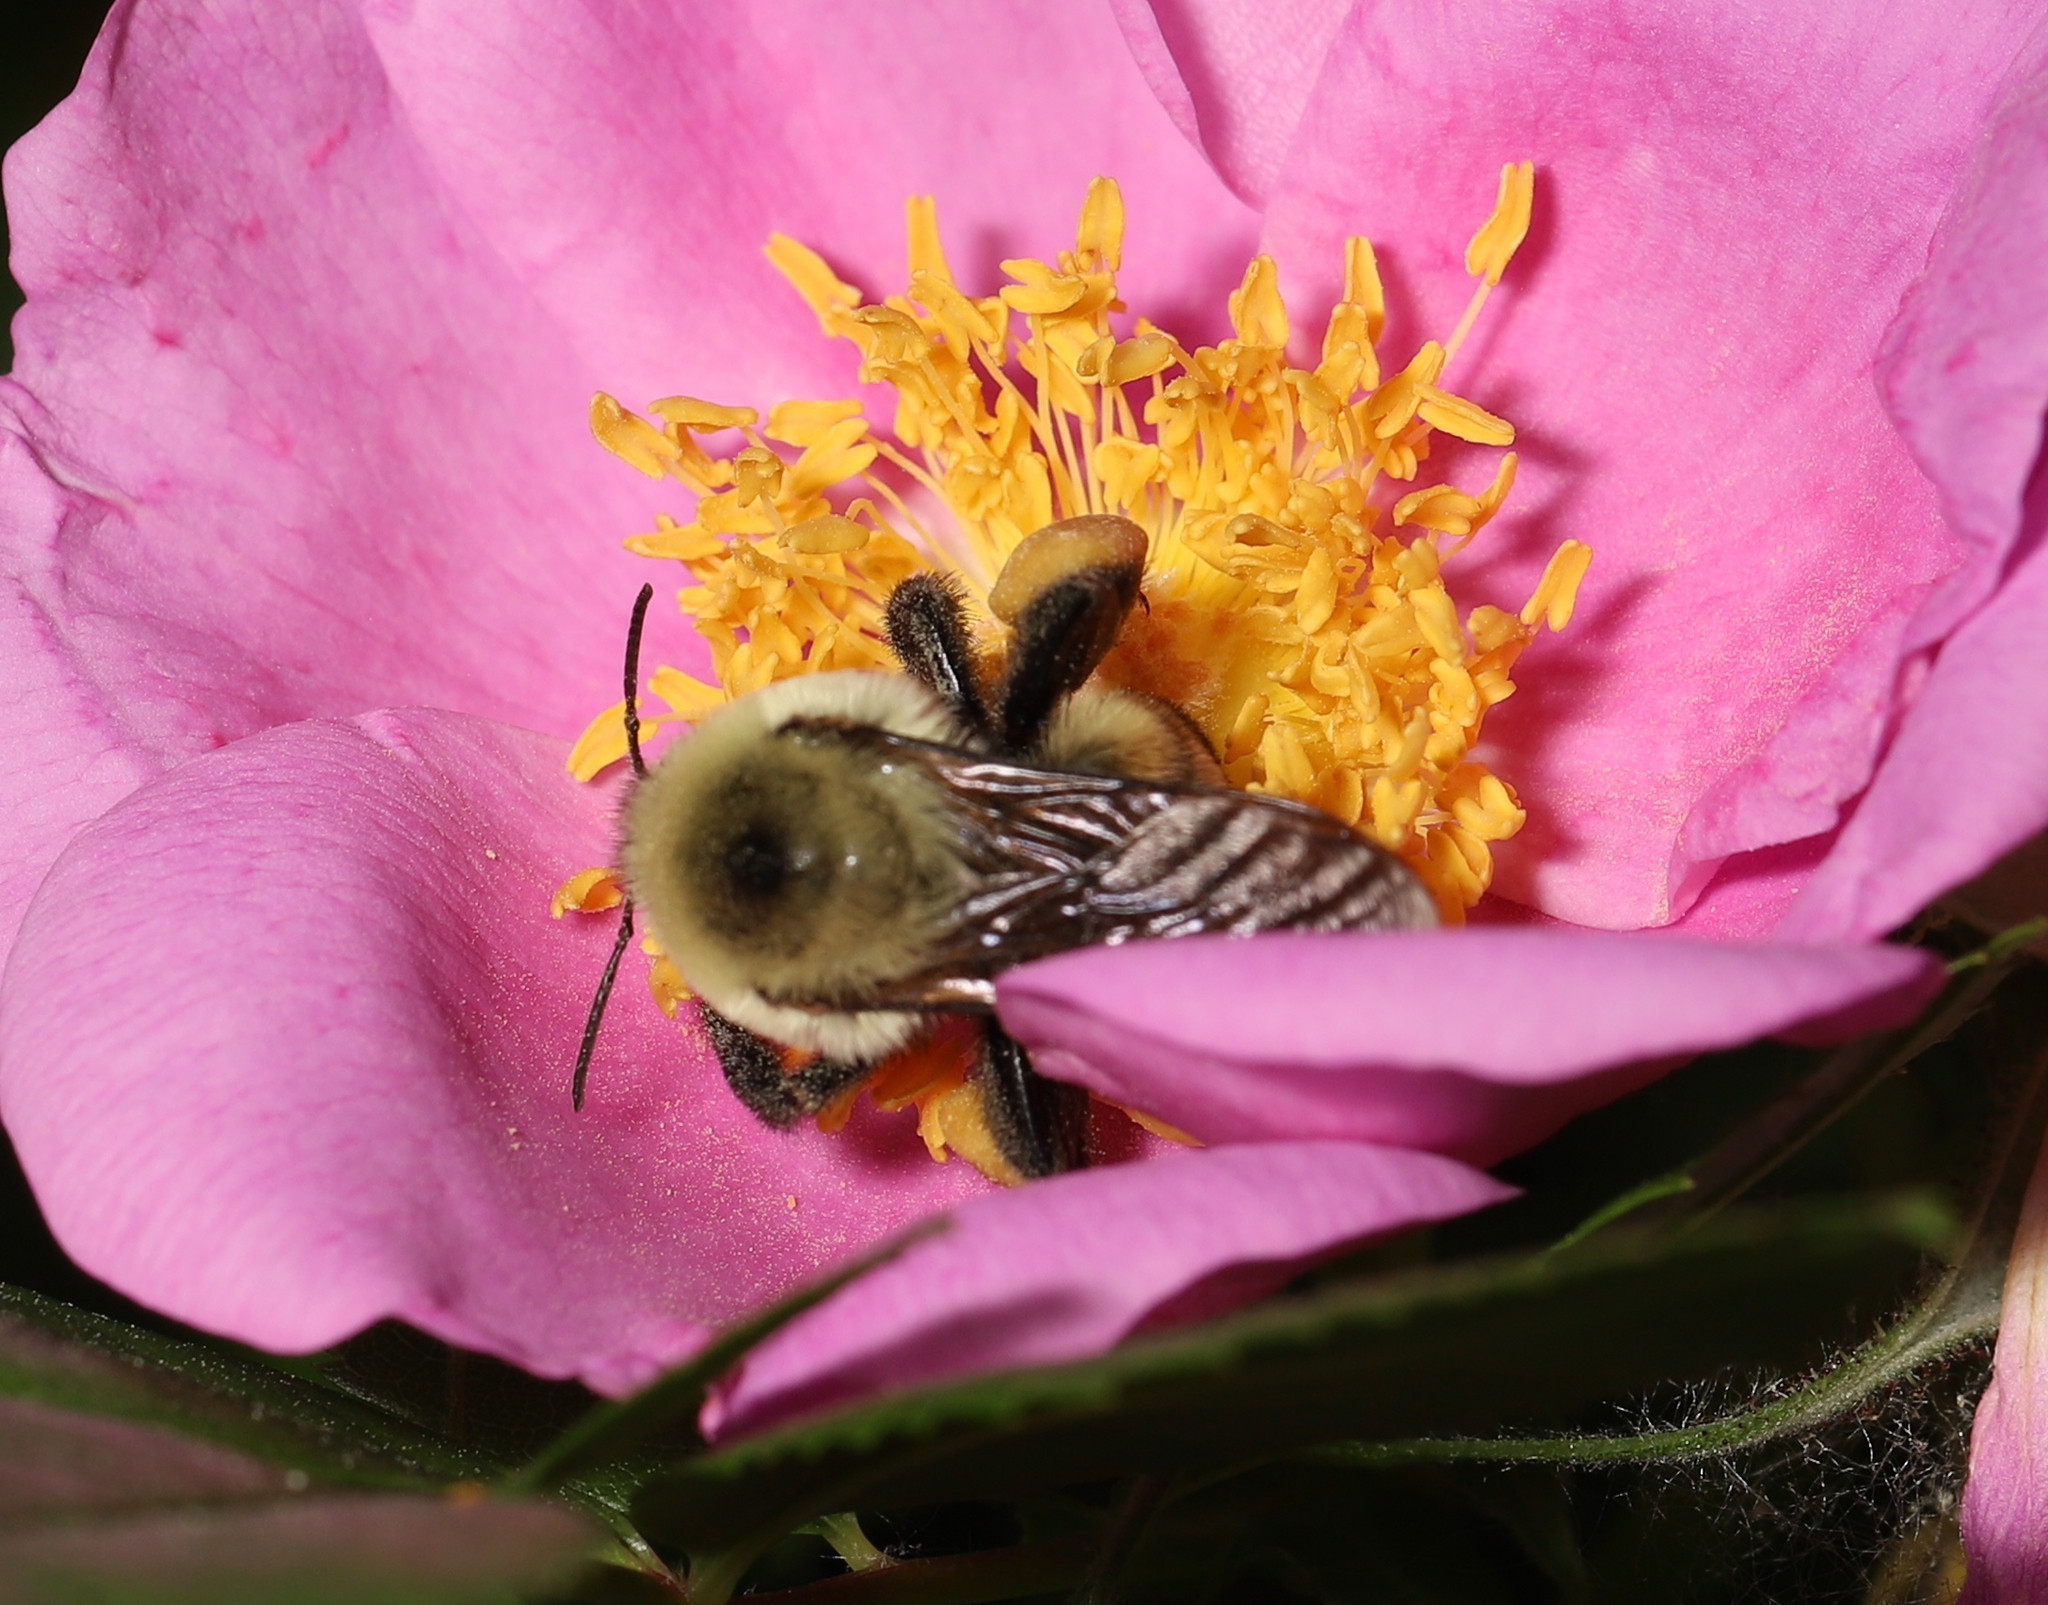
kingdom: Animalia
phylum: Arthropoda
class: Insecta
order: Hymenoptera
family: Apidae
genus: Bombus
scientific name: Bombus griseocollis
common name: Brown-belted bumble bee
